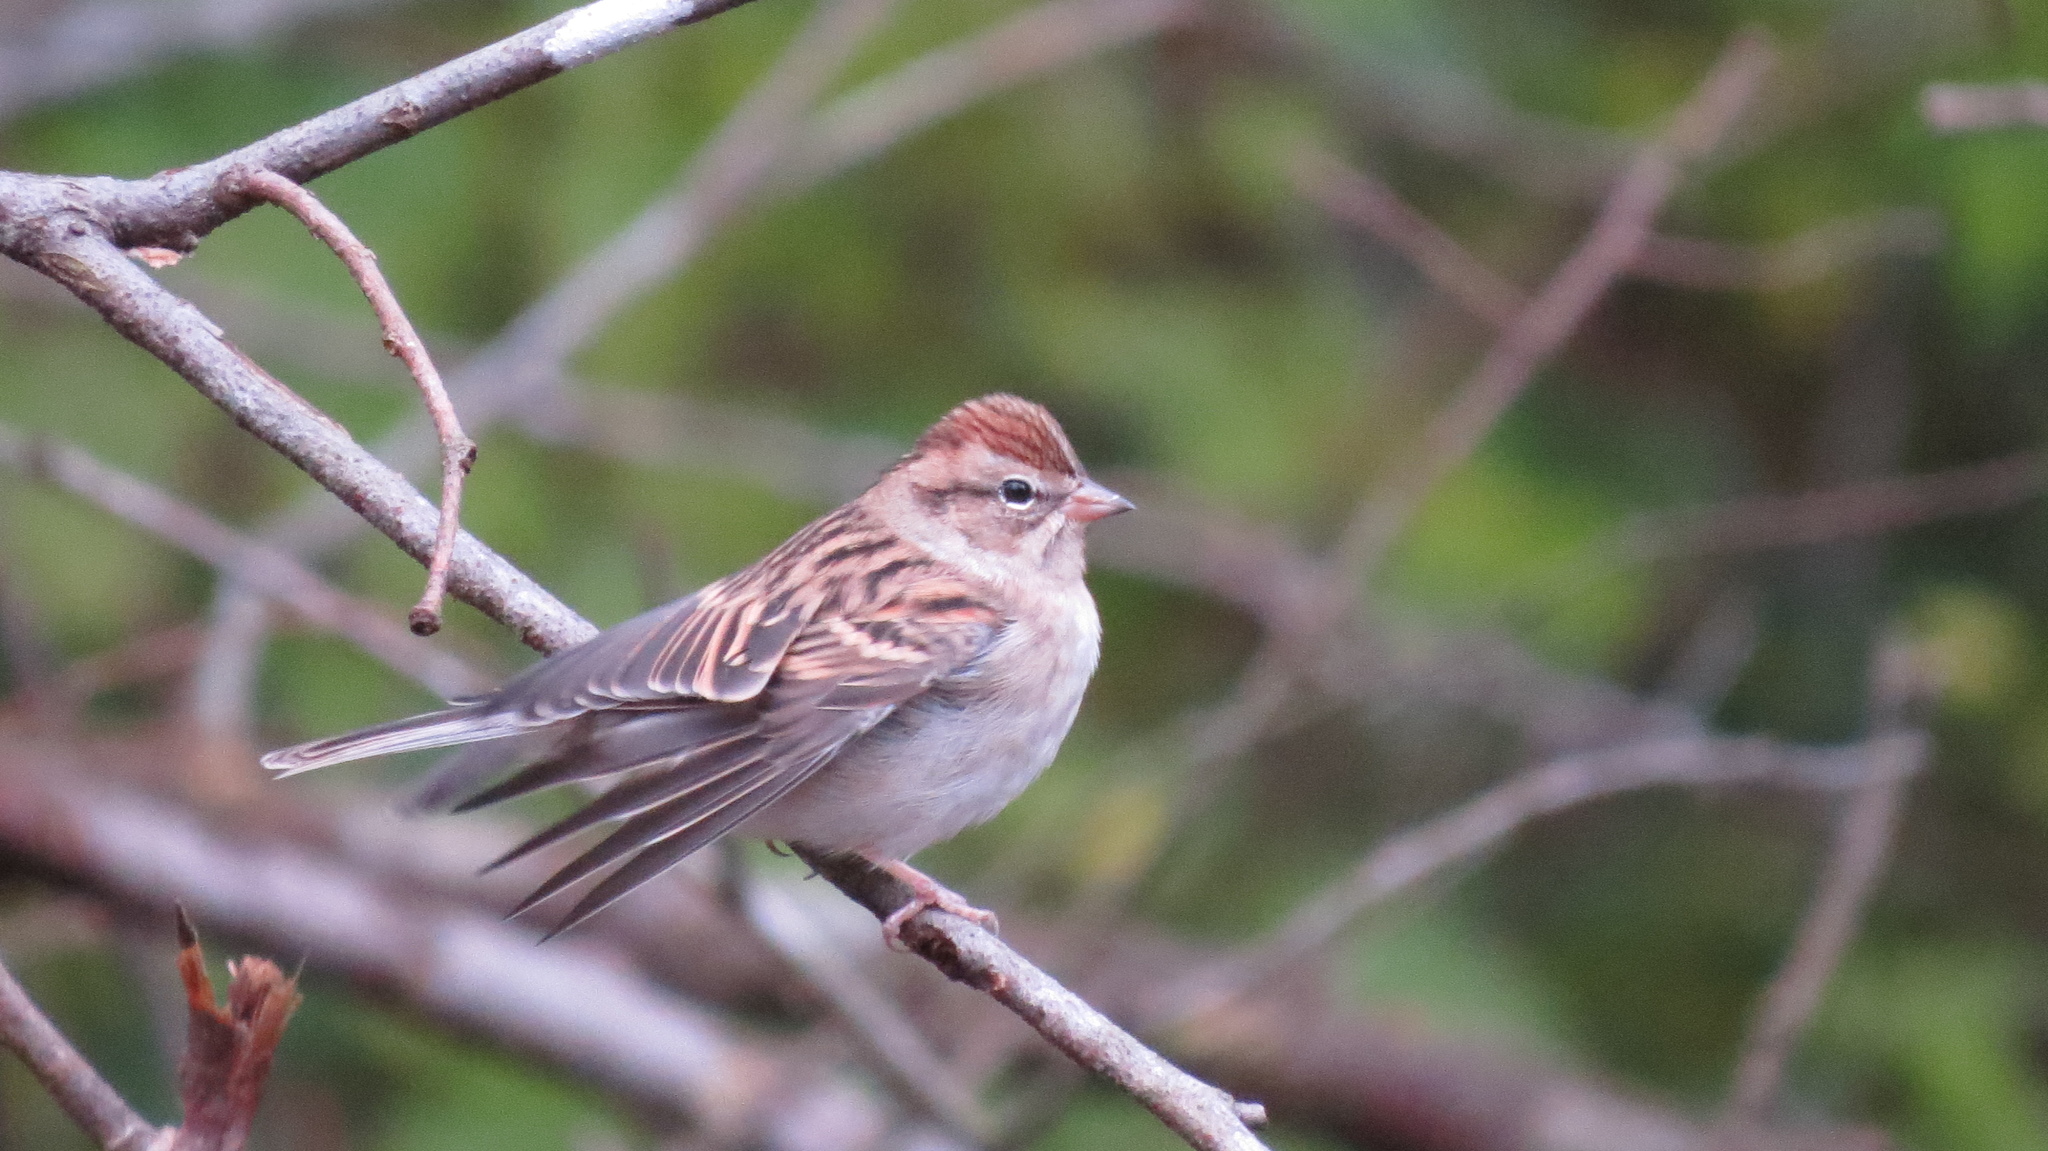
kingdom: Animalia
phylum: Chordata
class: Aves
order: Passeriformes
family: Passerellidae
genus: Spizella
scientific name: Spizella passerina
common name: Chipping sparrow
